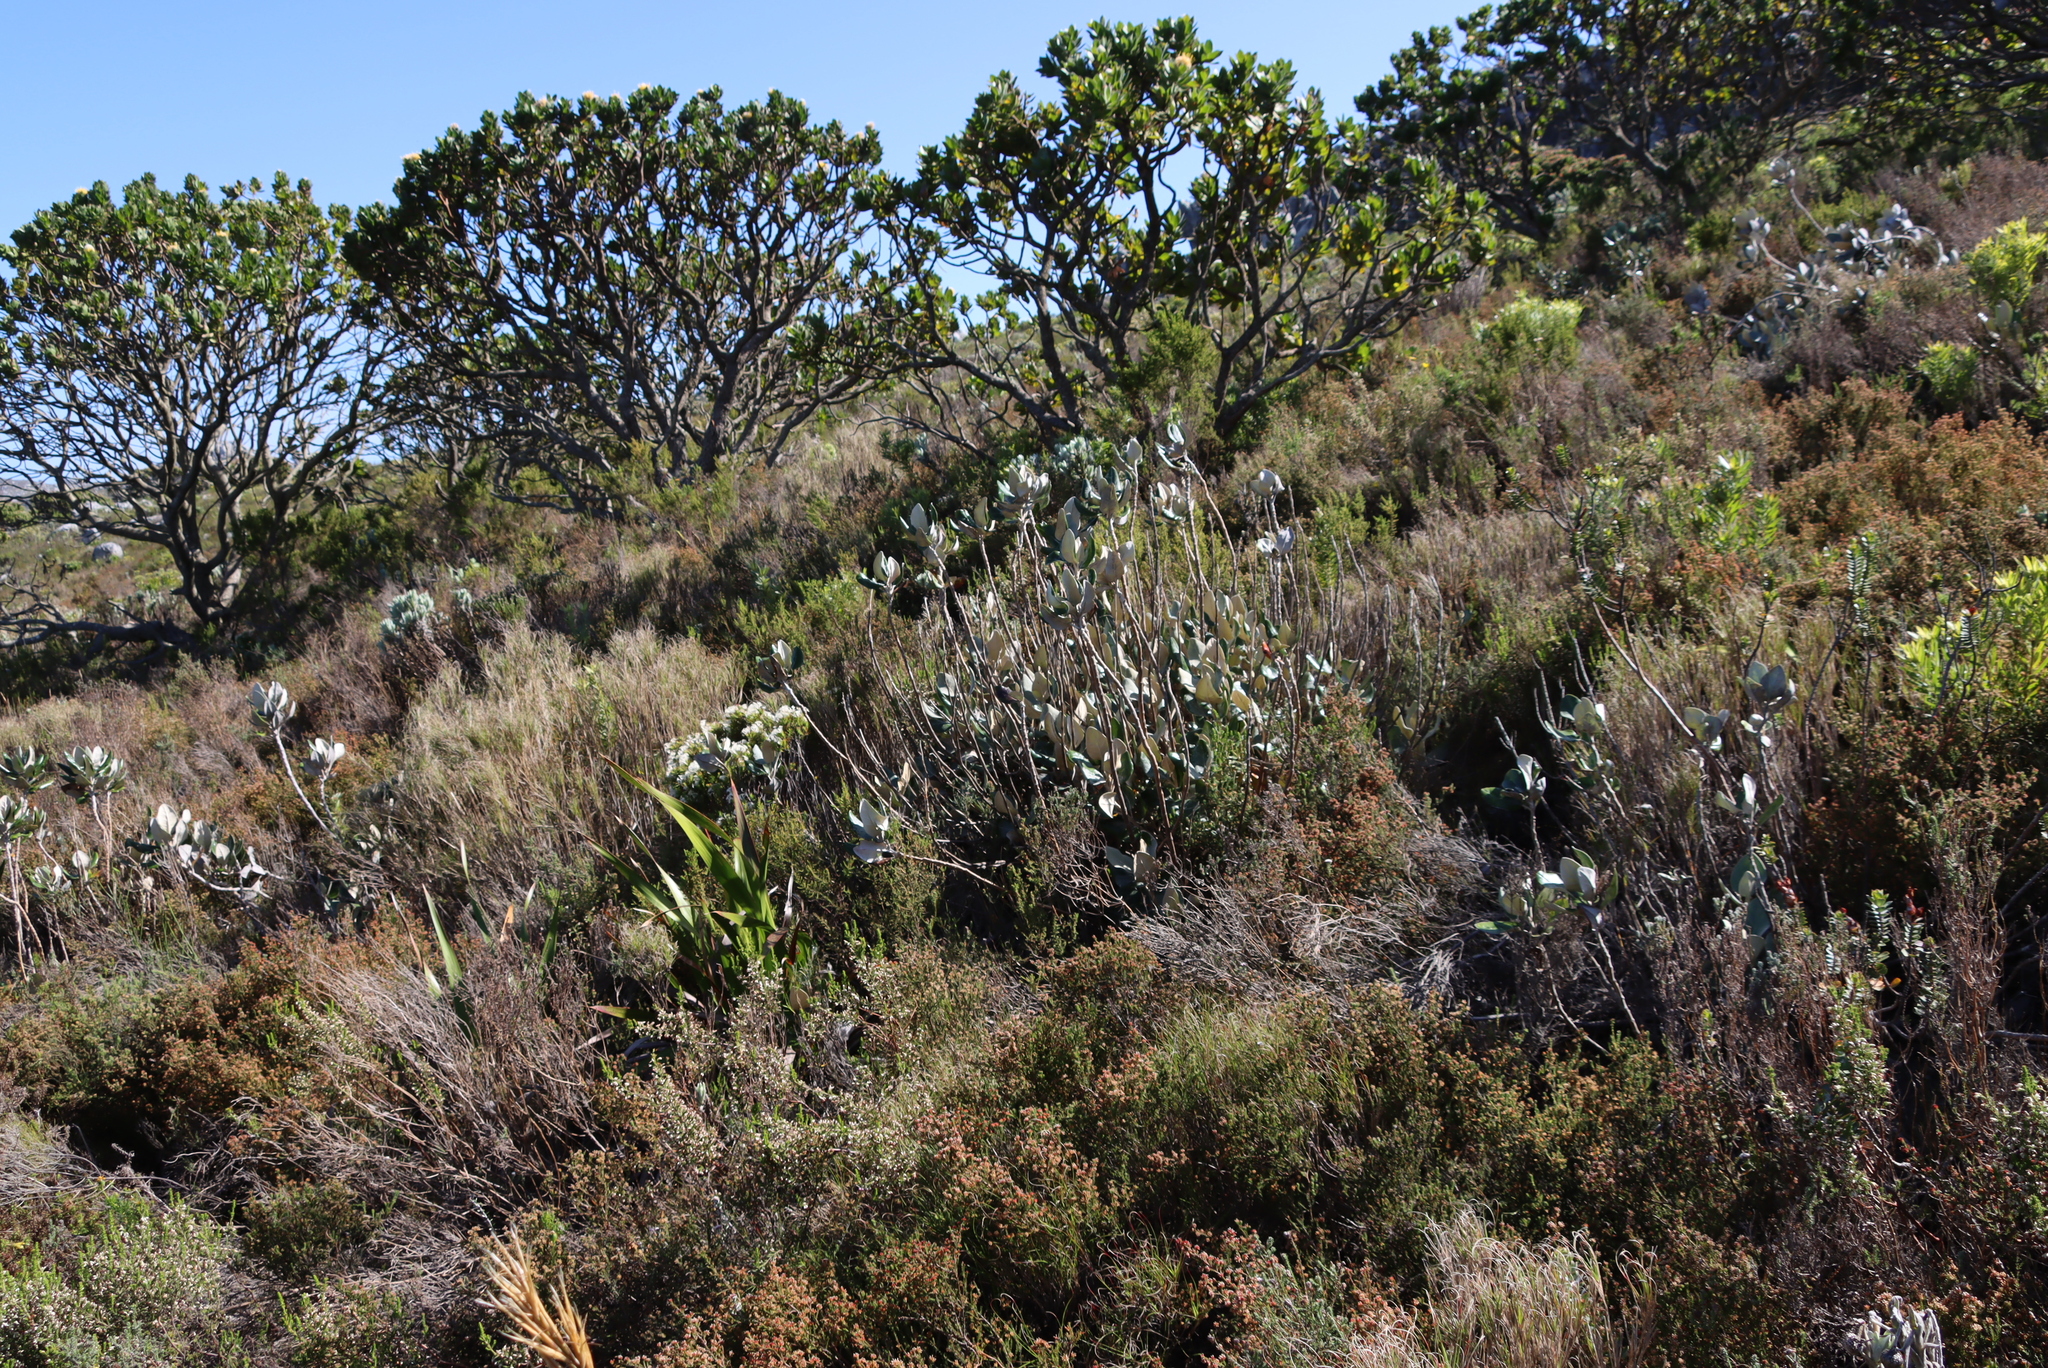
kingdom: Plantae
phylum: Tracheophyta
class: Magnoliopsida
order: Asterales
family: Asteraceae
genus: Capelio
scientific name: Capelio tabularis
